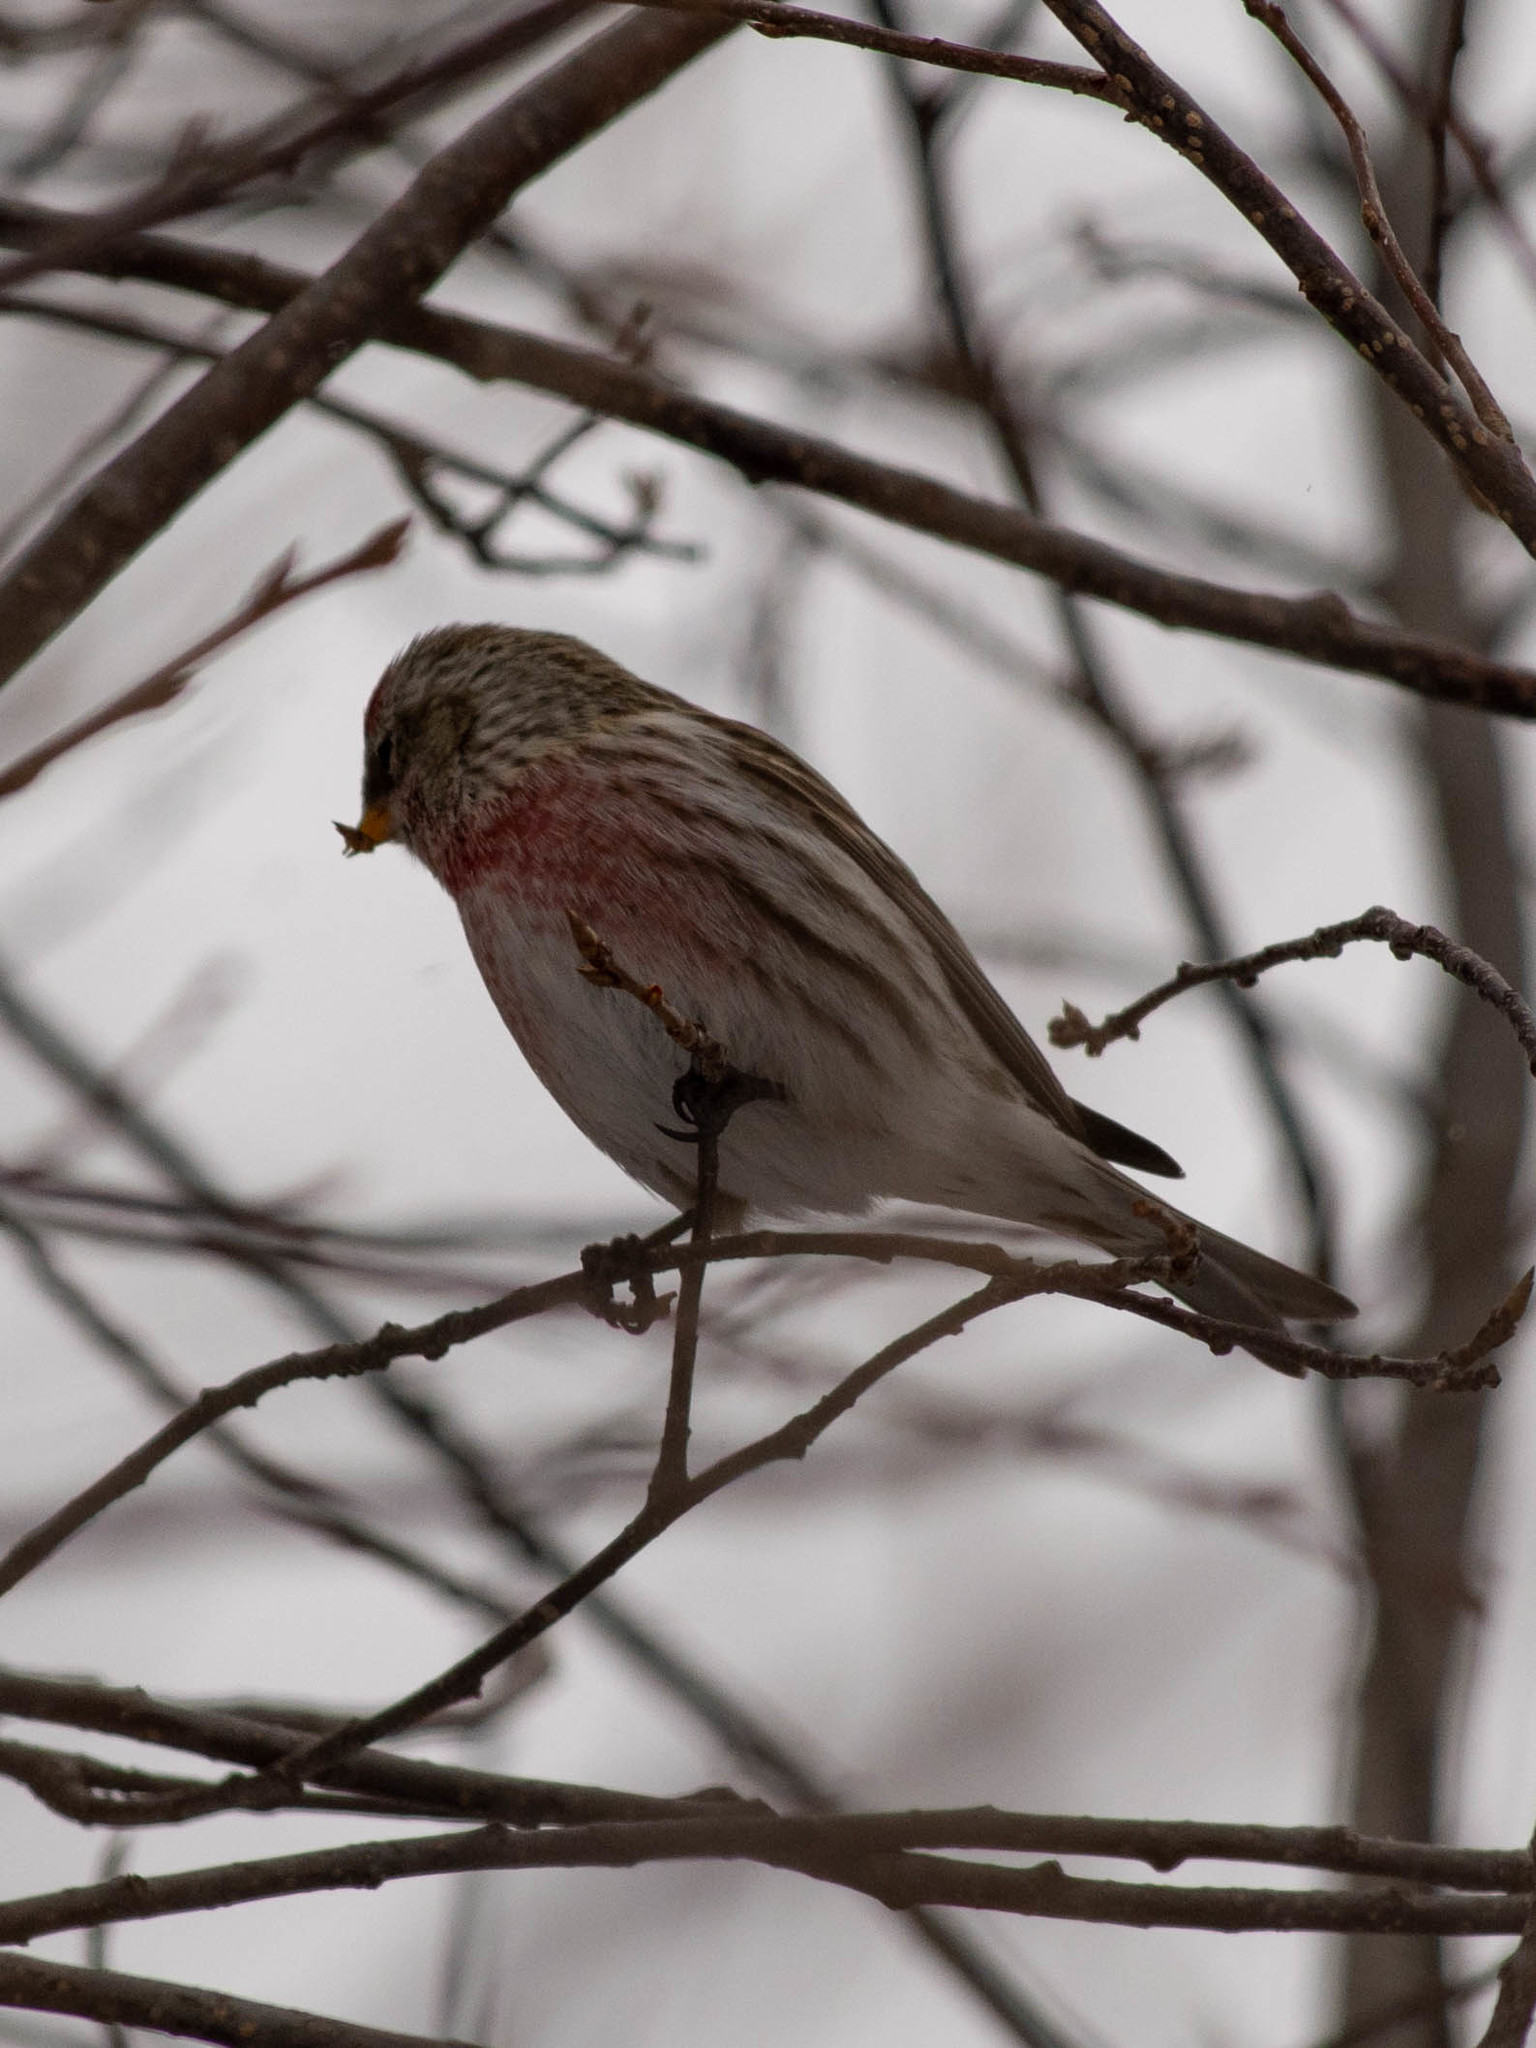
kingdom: Animalia
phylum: Chordata
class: Aves
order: Passeriformes
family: Fringillidae
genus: Acanthis
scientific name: Acanthis flammea
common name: Common redpoll
